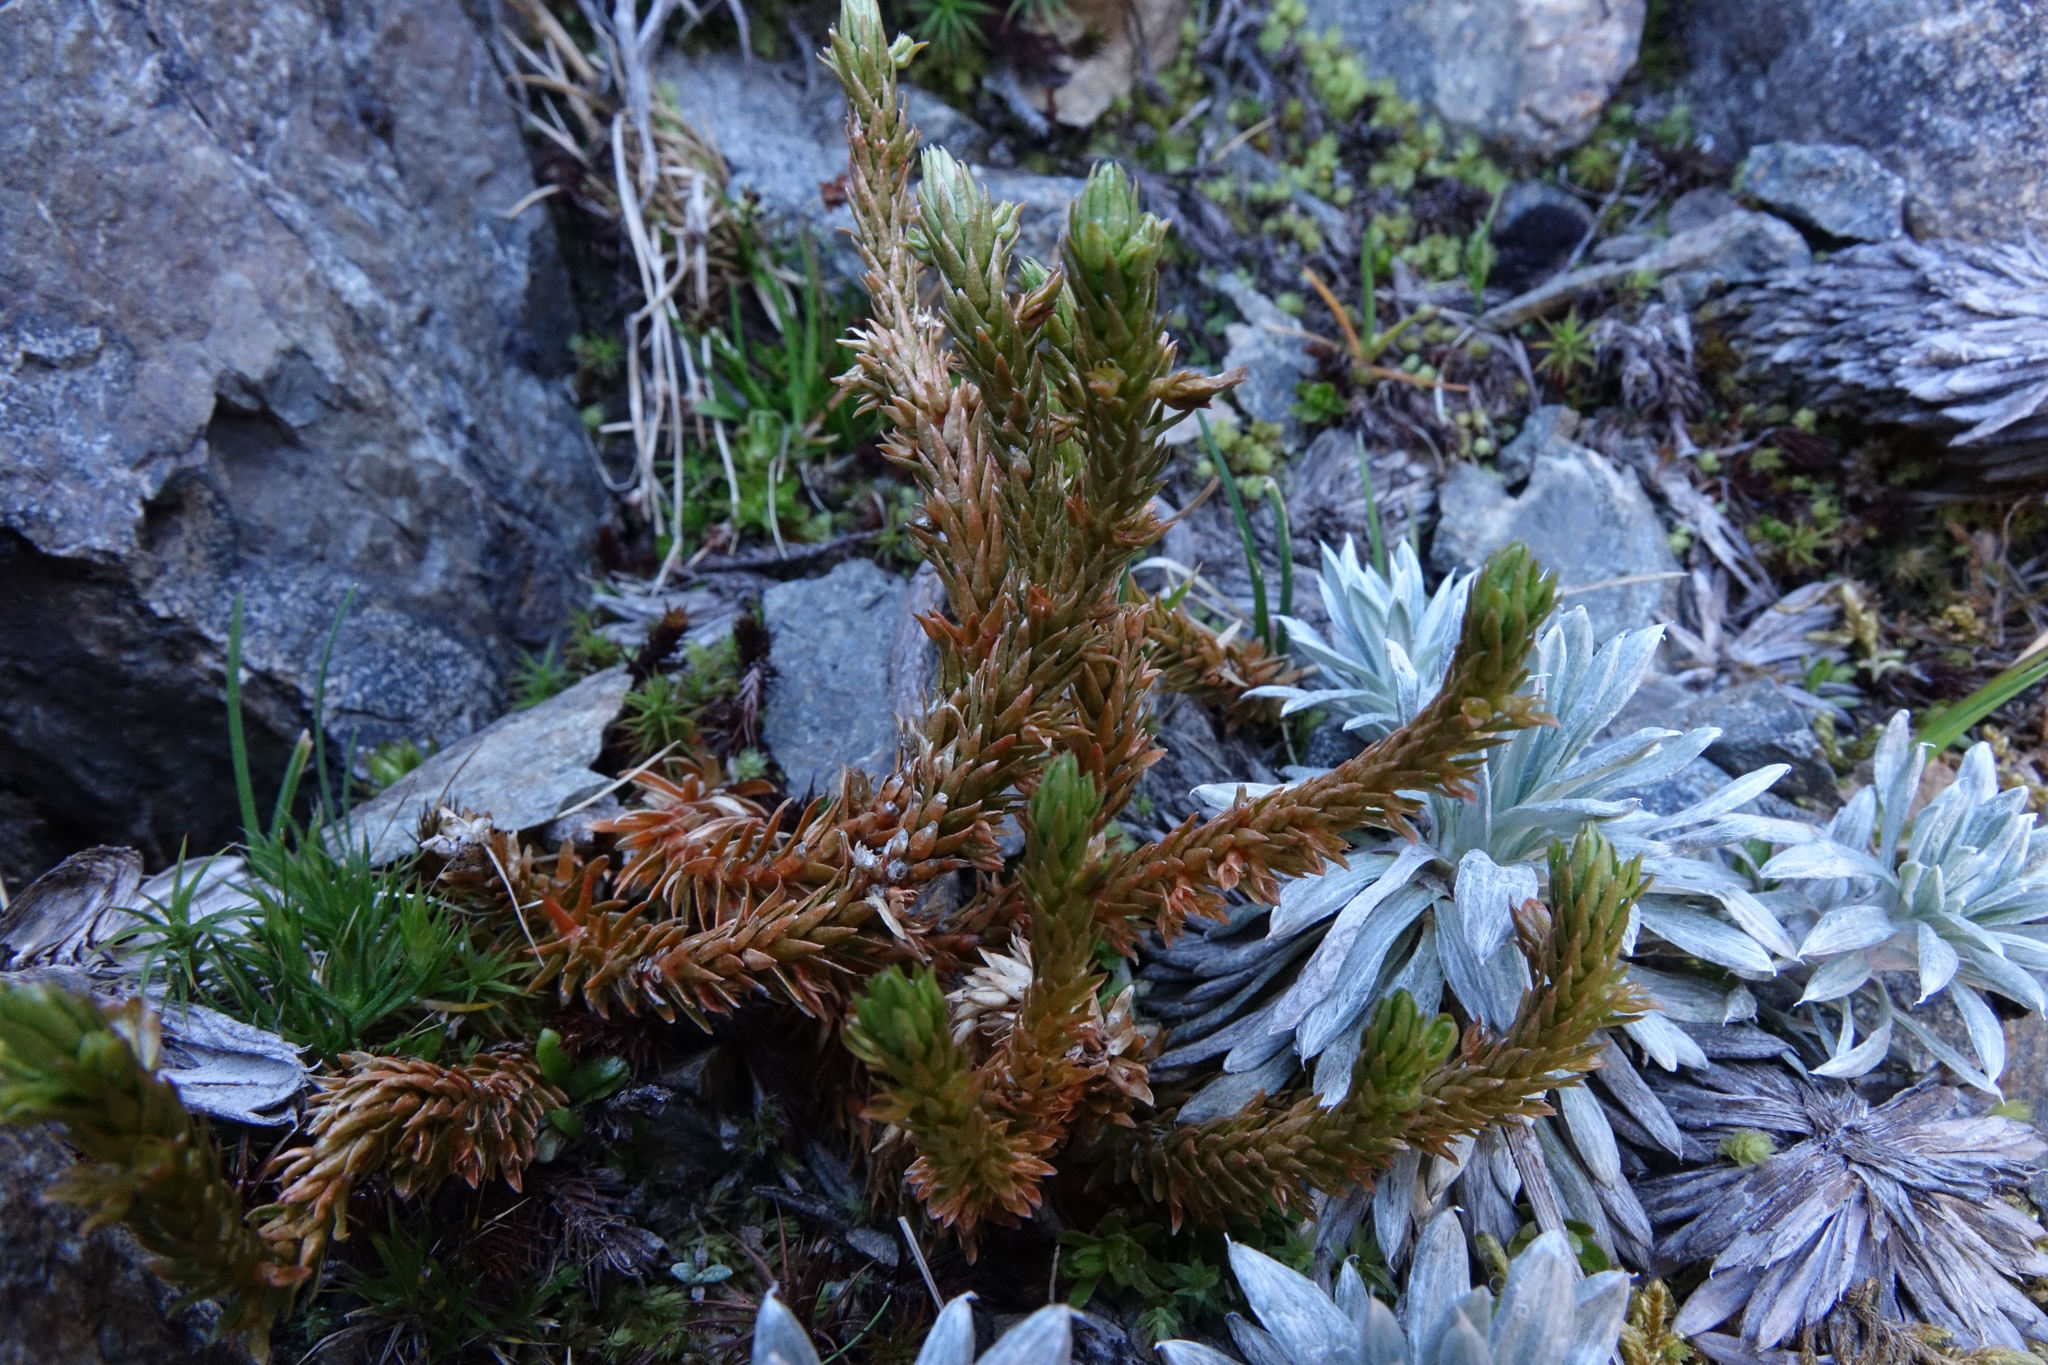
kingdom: Plantae
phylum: Tracheophyta
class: Lycopodiopsida
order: Lycopodiales
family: Lycopodiaceae
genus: Huperzia
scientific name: Huperzia australiana
